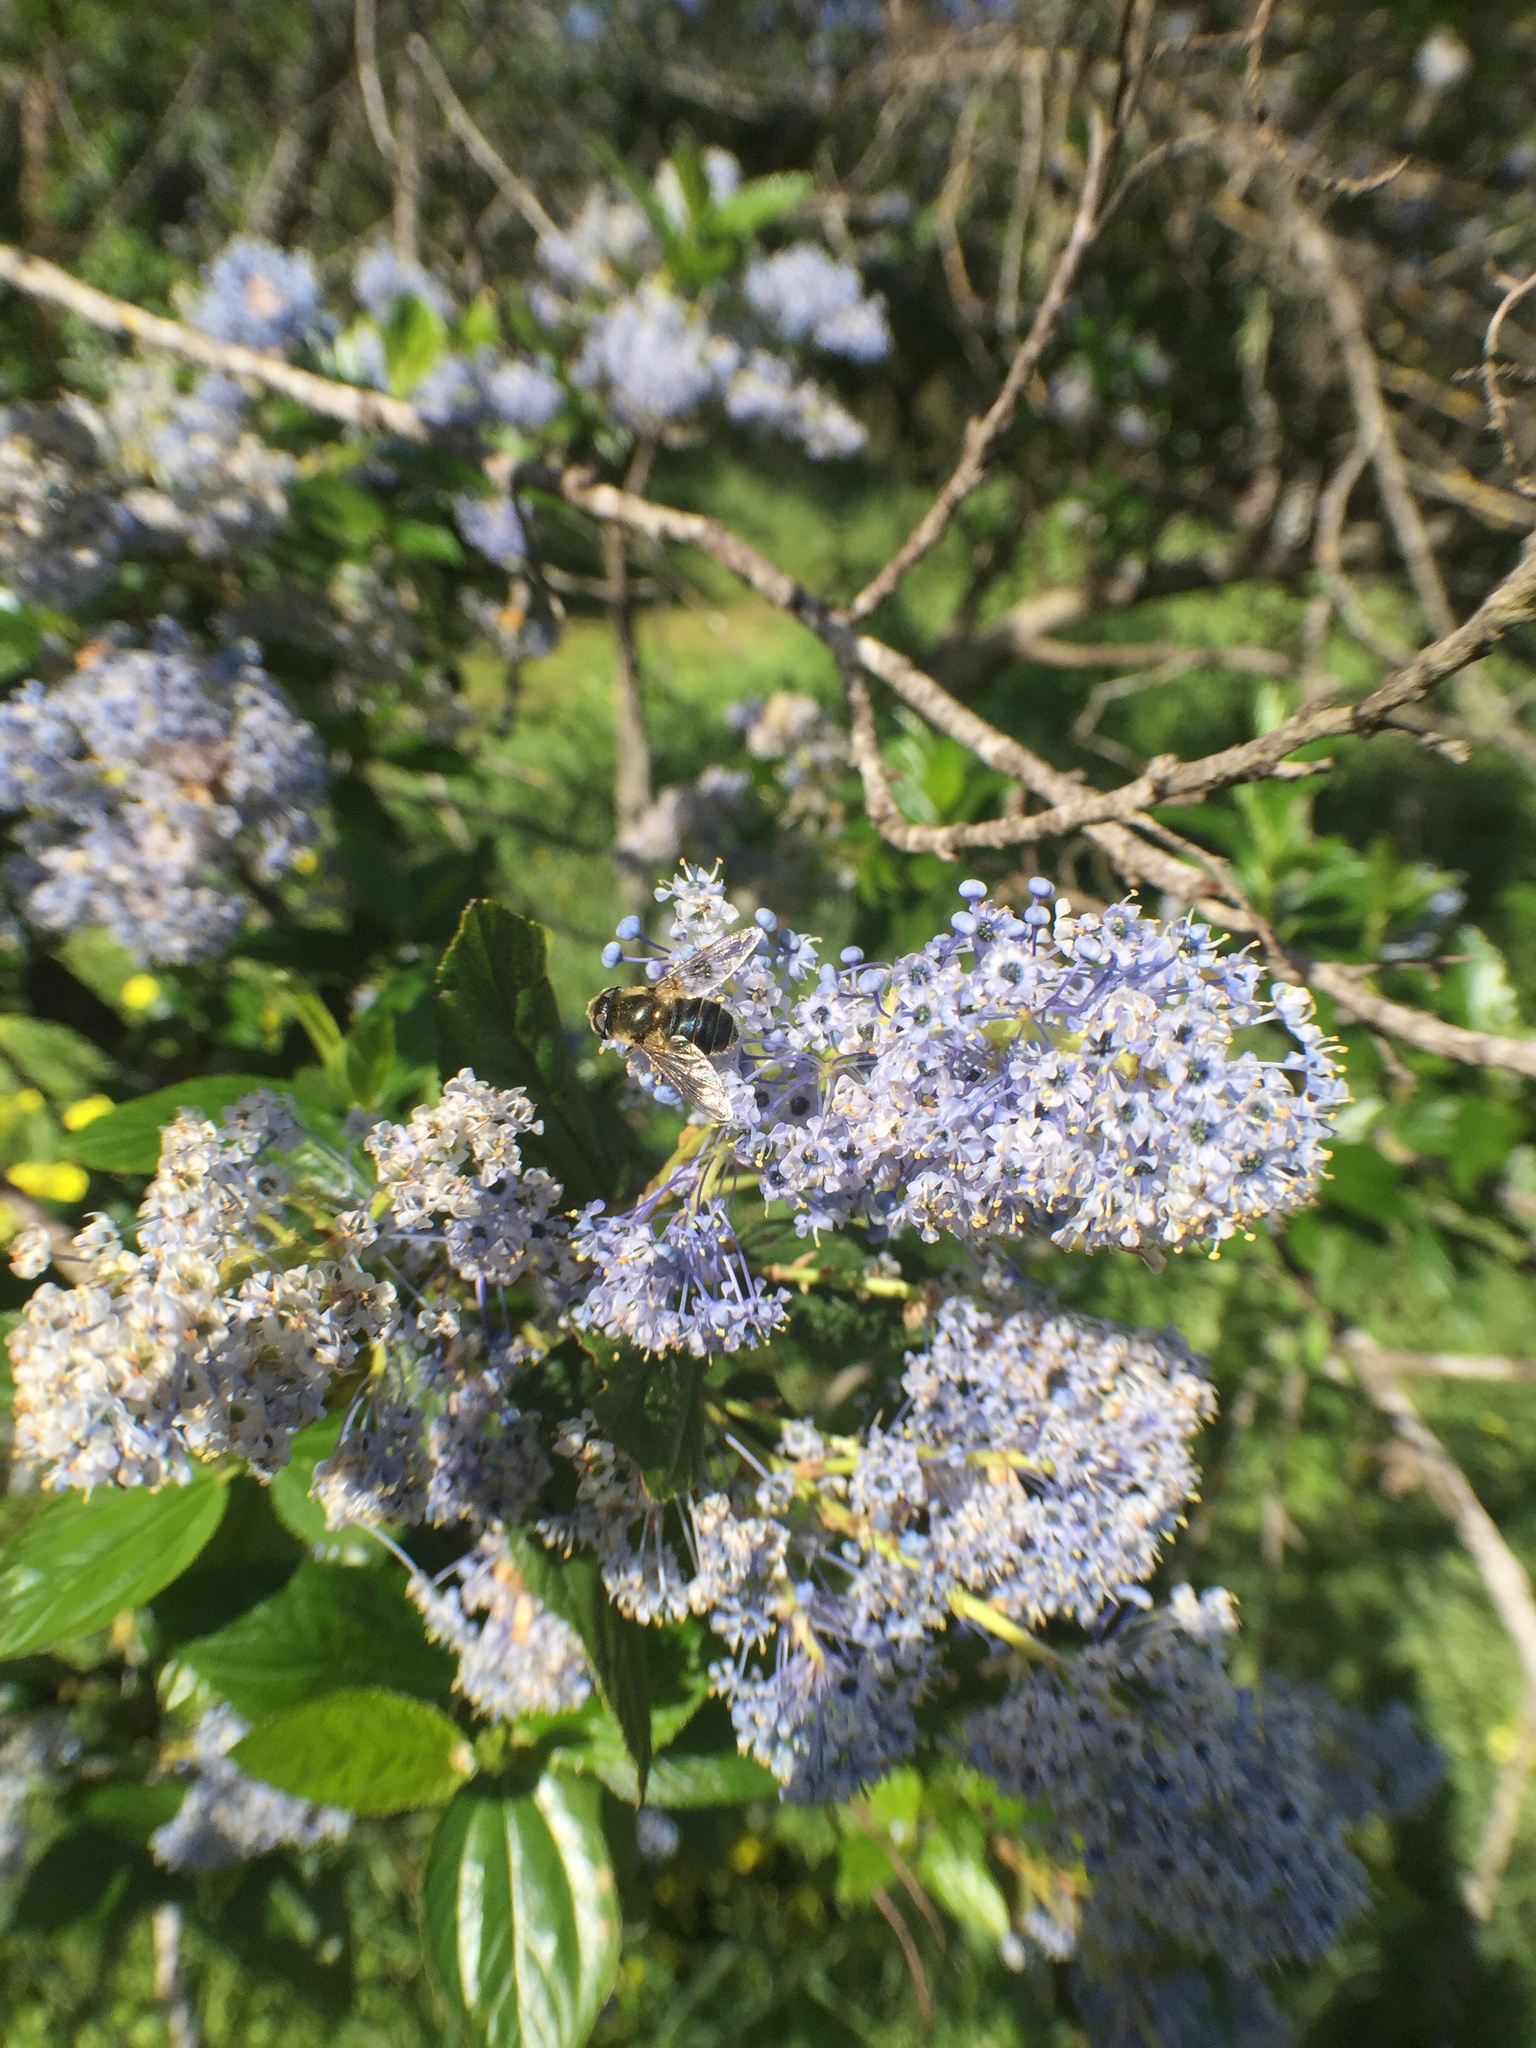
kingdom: Animalia
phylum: Arthropoda
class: Insecta
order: Diptera
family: Syrphidae
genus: Eoseristalis
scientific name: Eoseristalis
